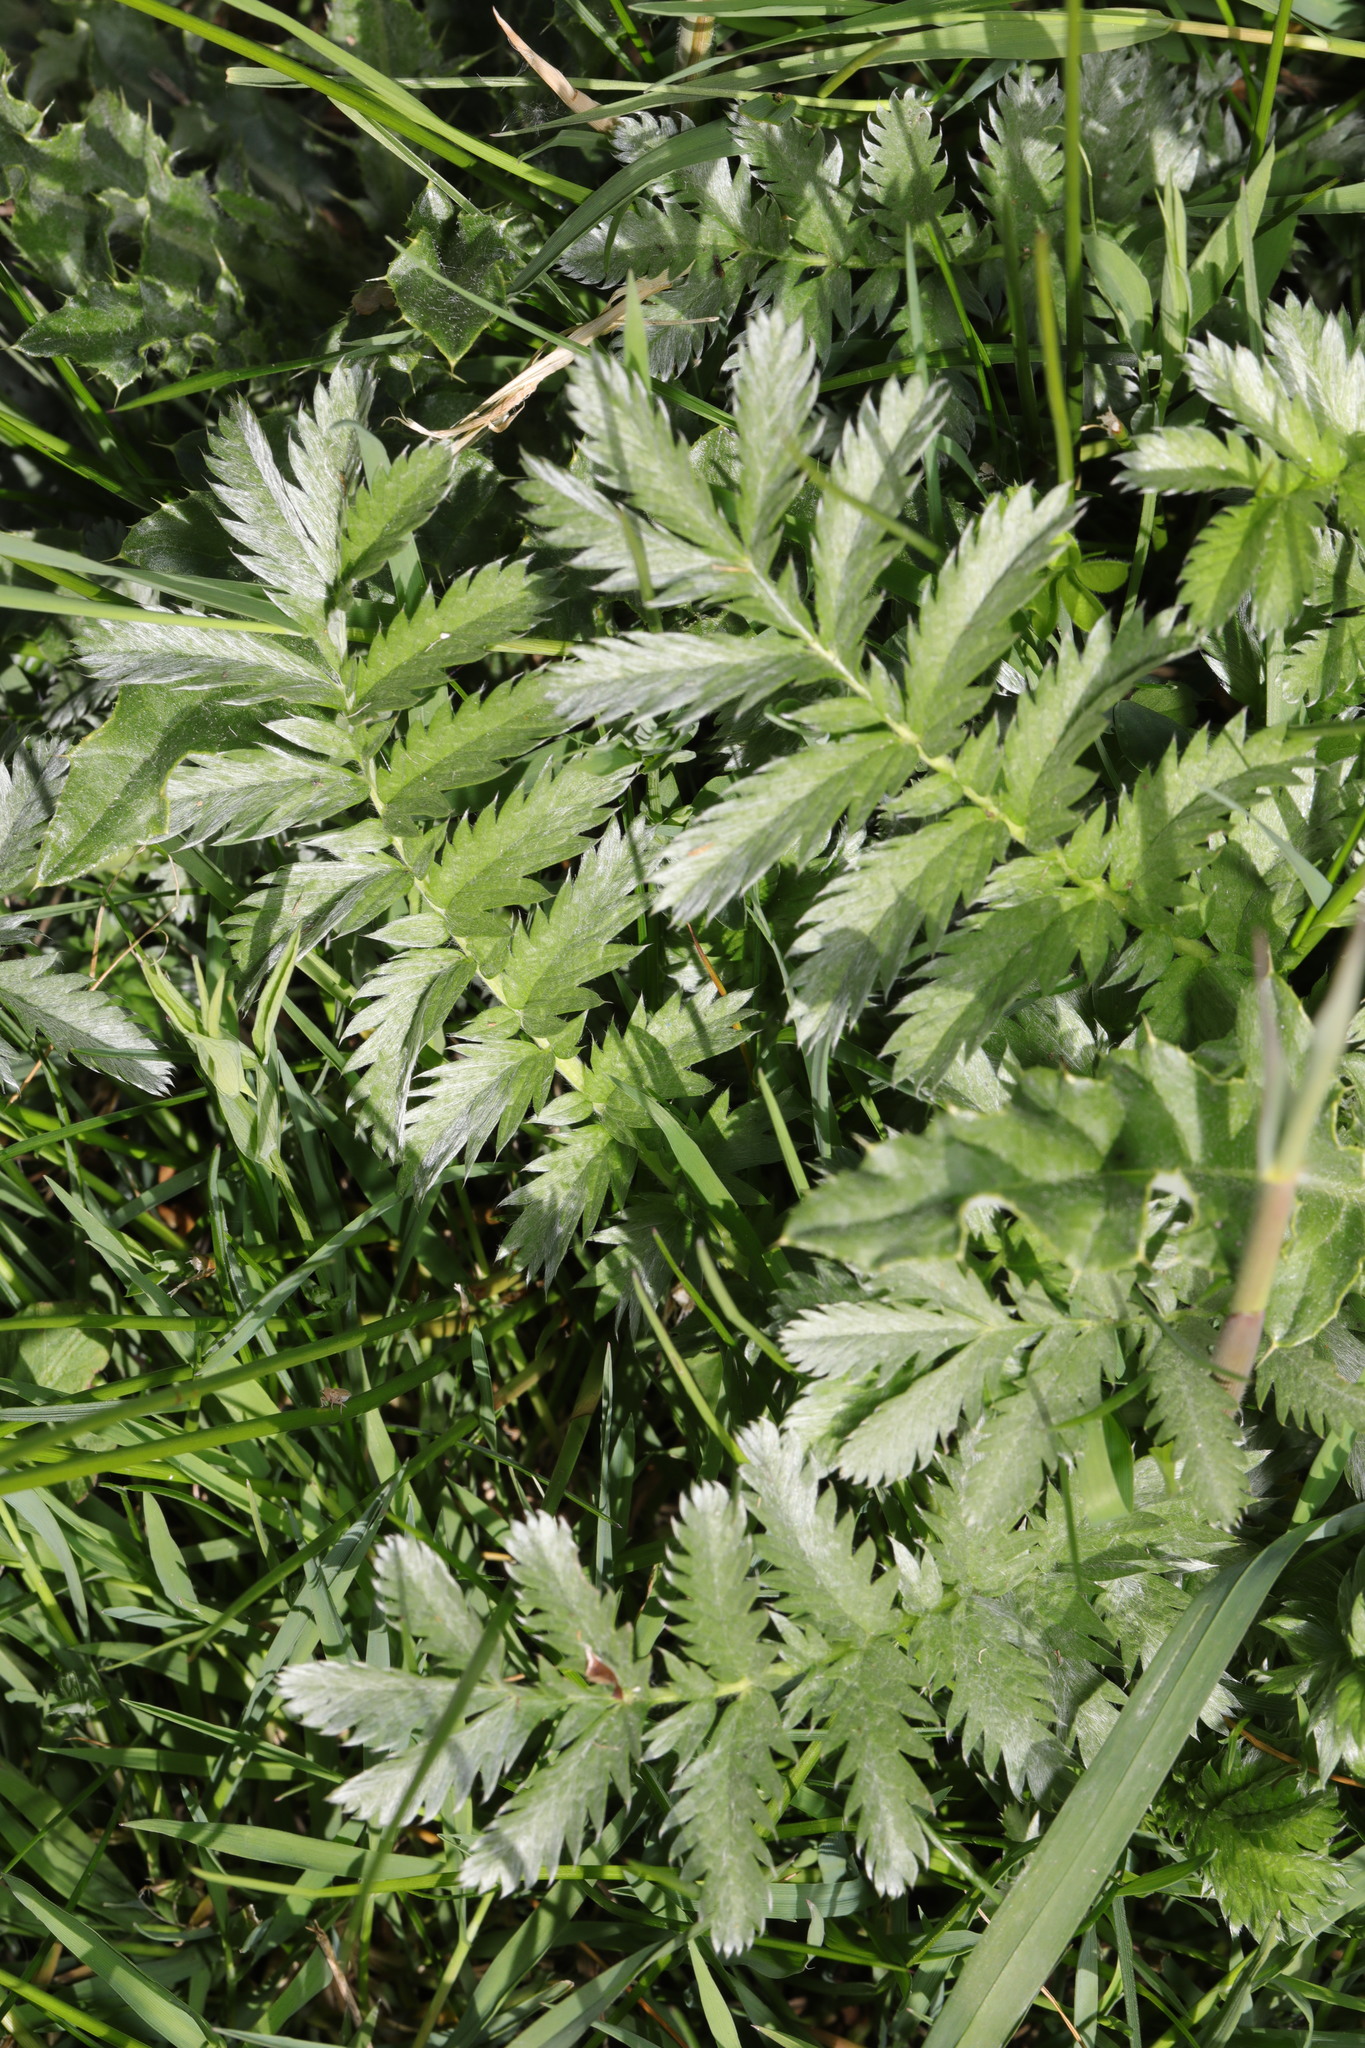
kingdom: Plantae
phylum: Tracheophyta
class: Magnoliopsida
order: Rosales
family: Rosaceae
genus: Argentina
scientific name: Argentina anserina
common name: Common silverweed
